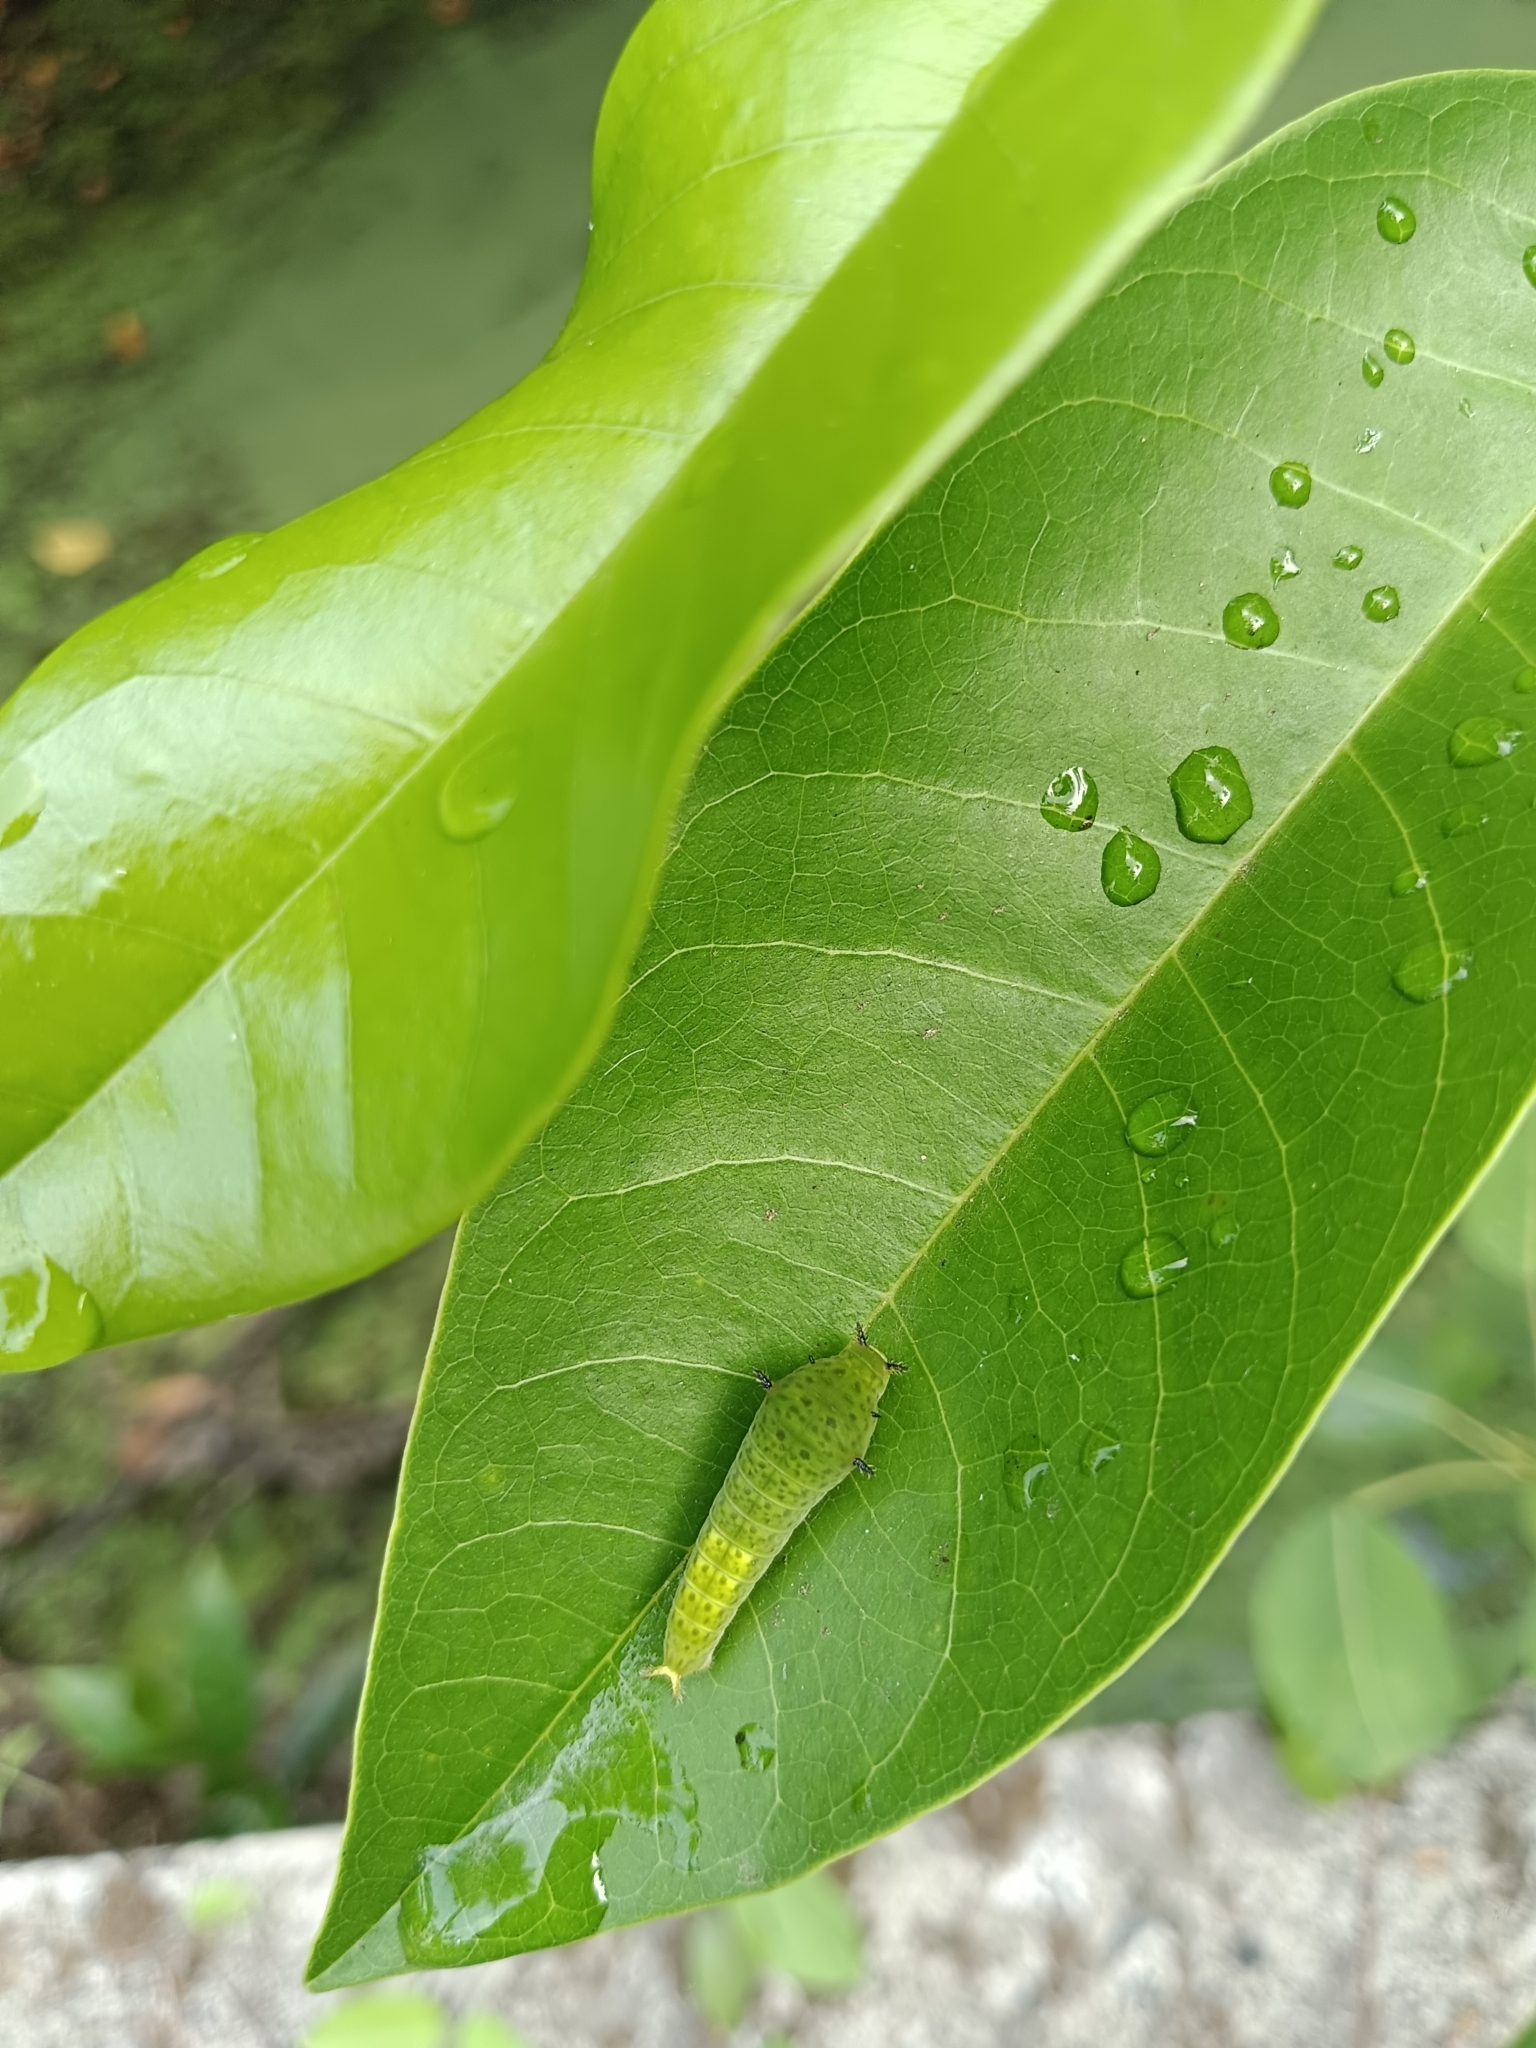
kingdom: Animalia
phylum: Arthropoda
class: Insecta
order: Lepidoptera
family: Papilionidae
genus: Graphium
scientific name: Graphium agamemnon
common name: Tailed jay
